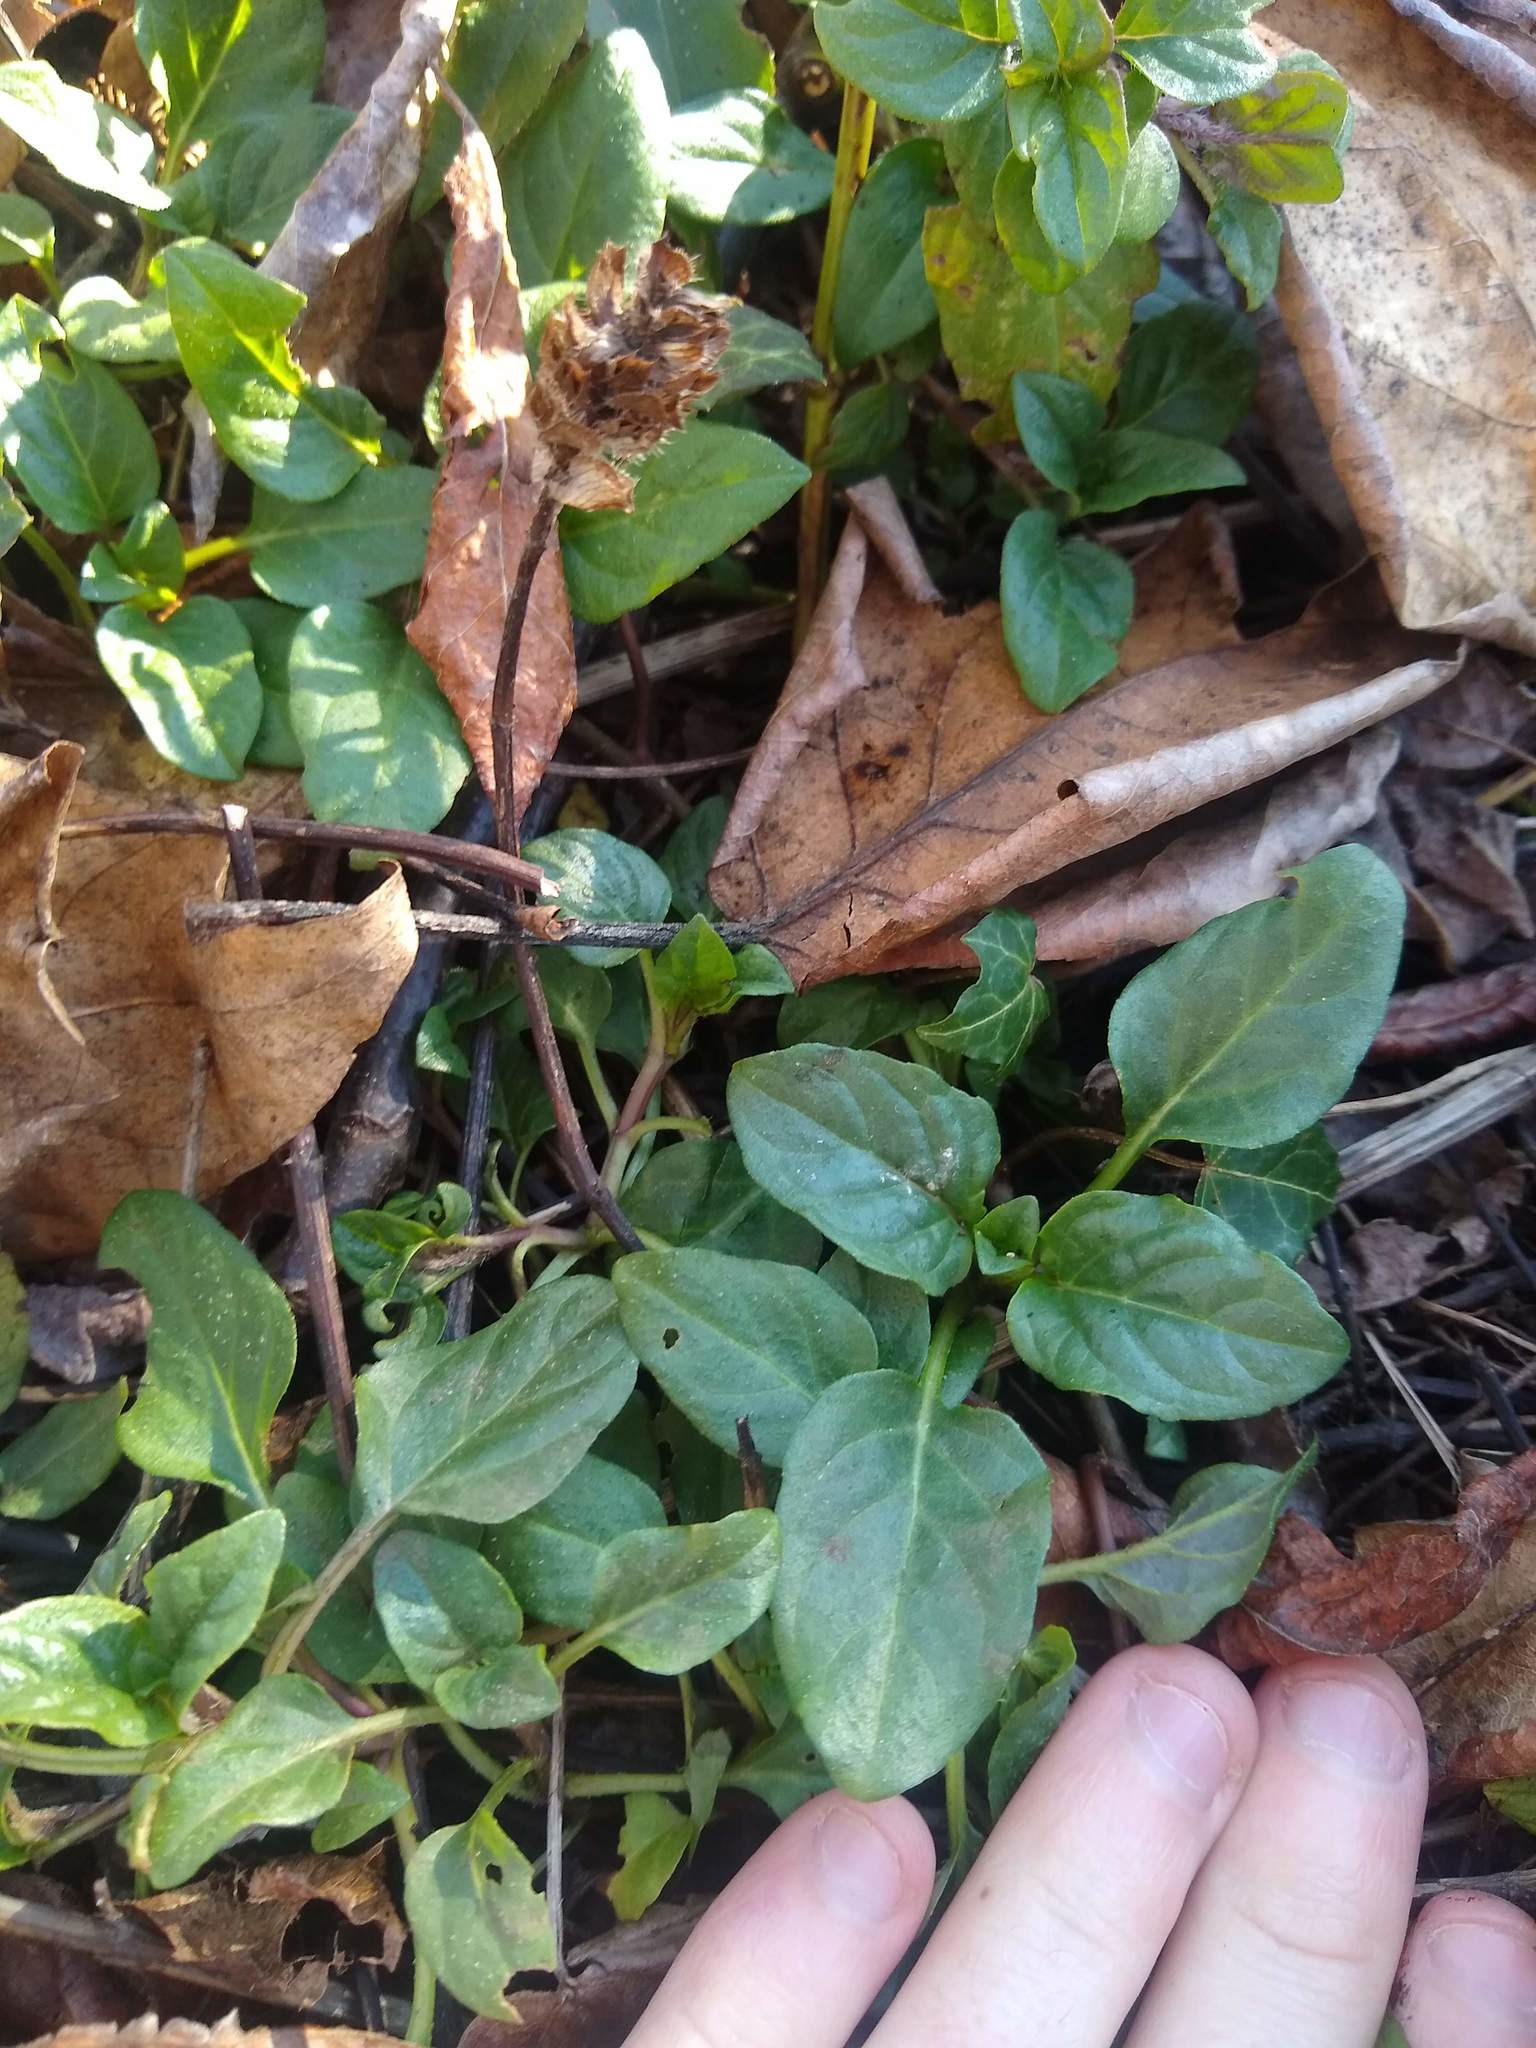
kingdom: Plantae
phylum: Tracheophyta
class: Magnoliopsida
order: Lamiales
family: Lamiaceae
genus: Prunella
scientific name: Prunella vulgaris
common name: Heal-all
